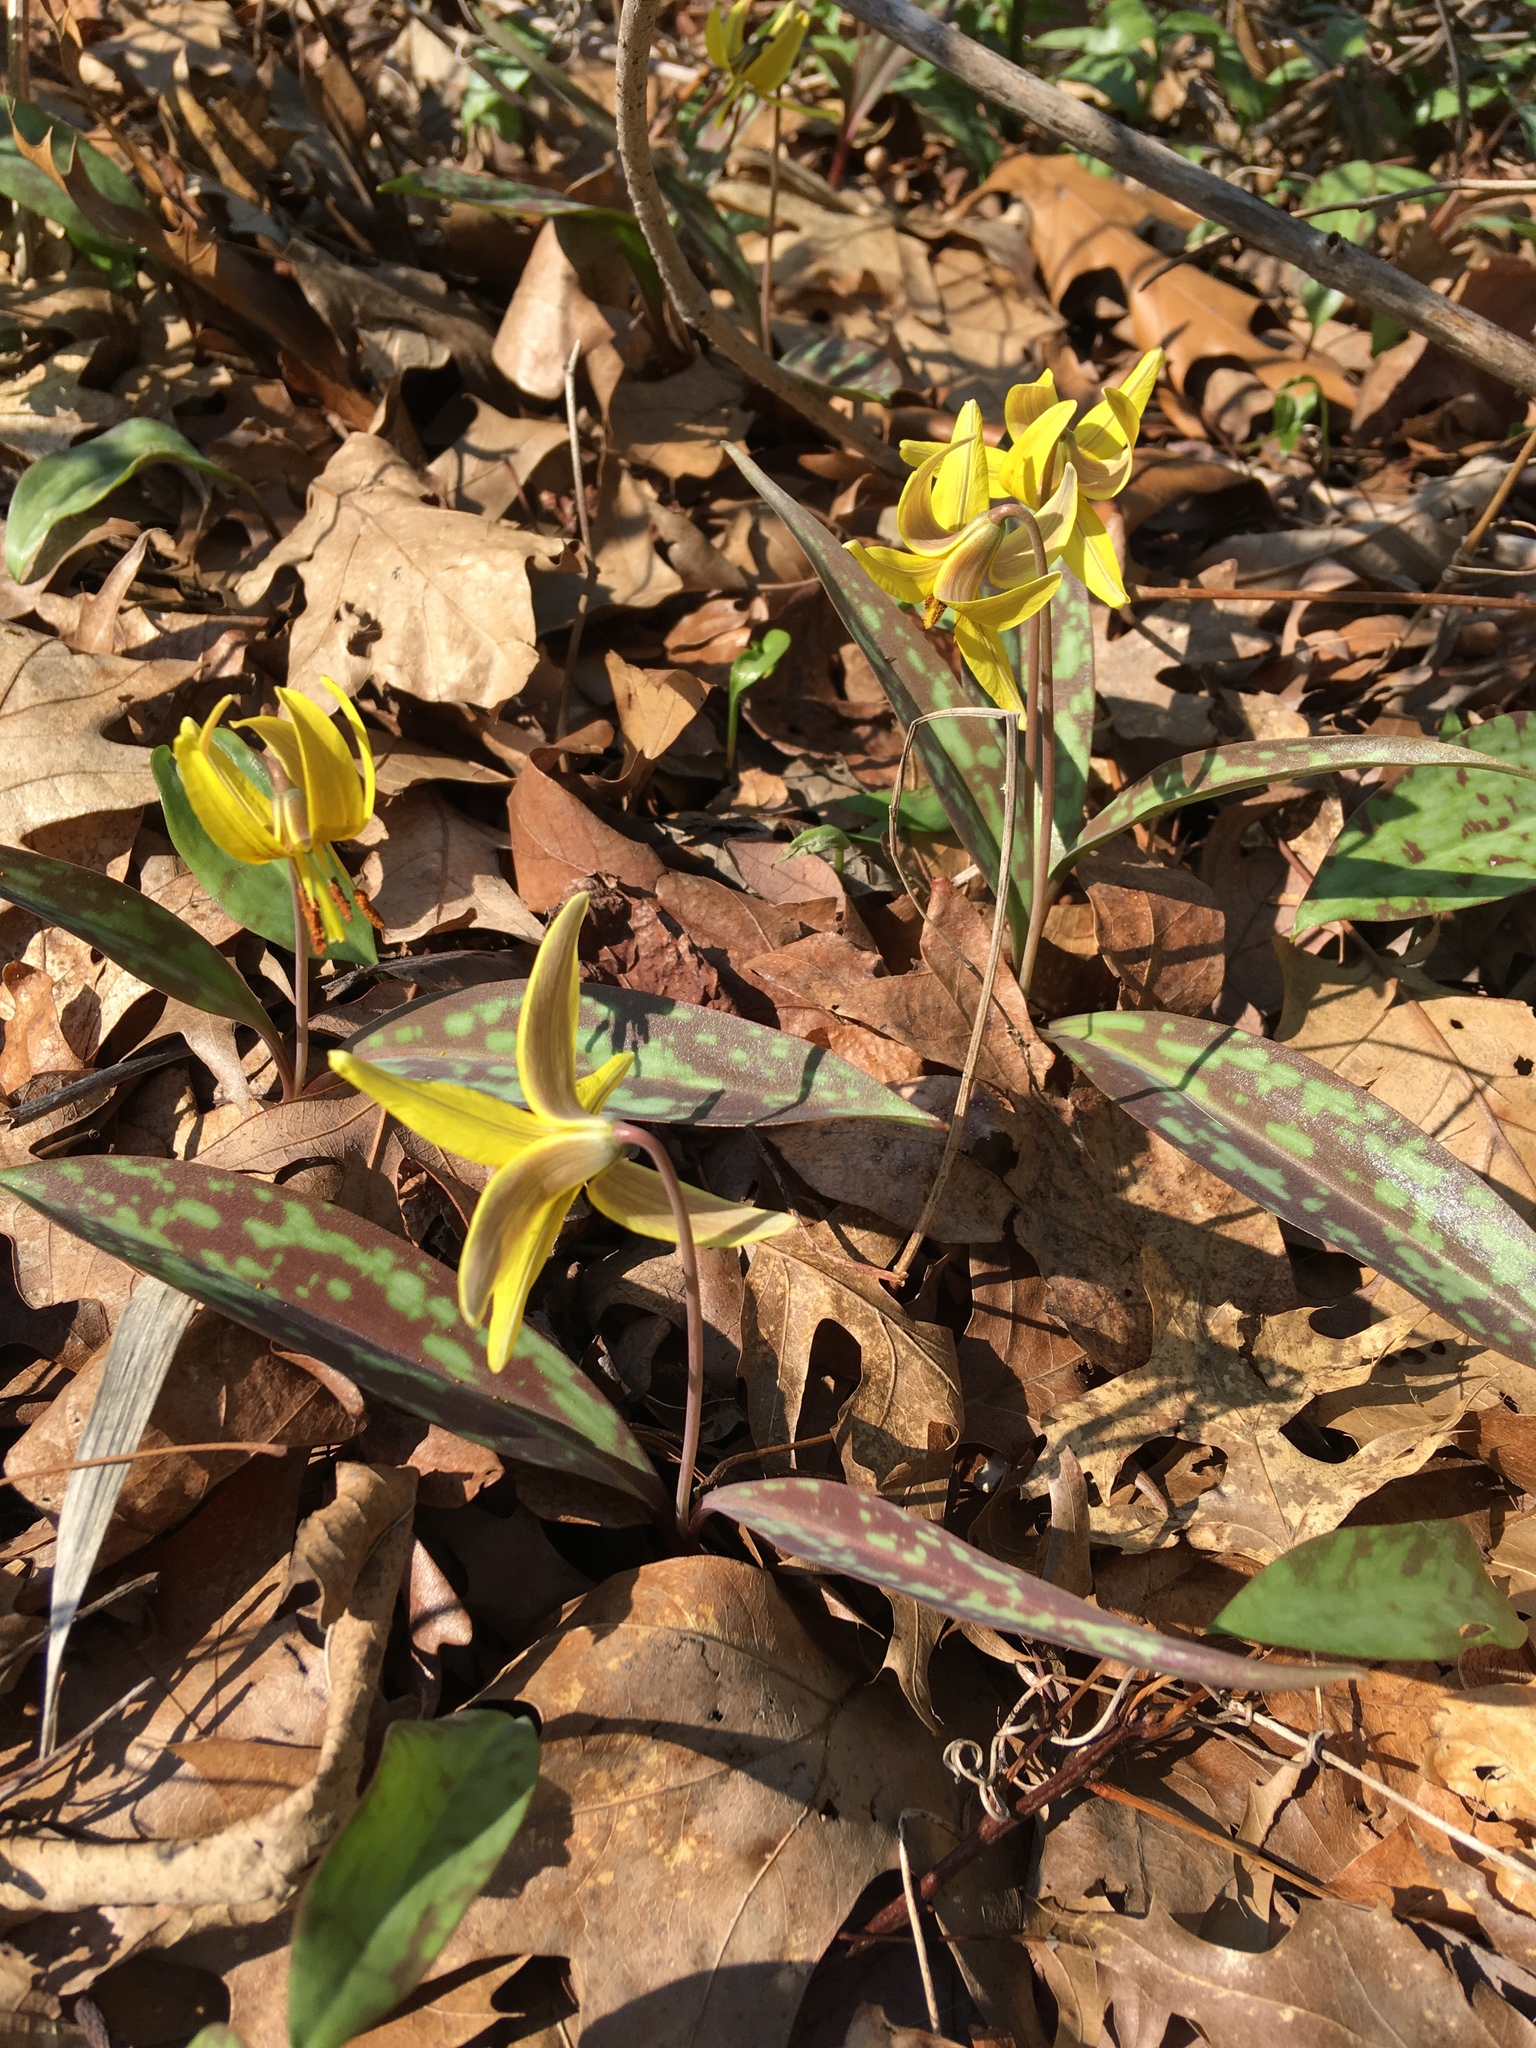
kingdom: Plantae
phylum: Tracheophyta
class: Liliopsida
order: Liliales
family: Liliaceae
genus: Erythronium
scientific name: Erythronium americanum
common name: Yellow adder's-tongue
